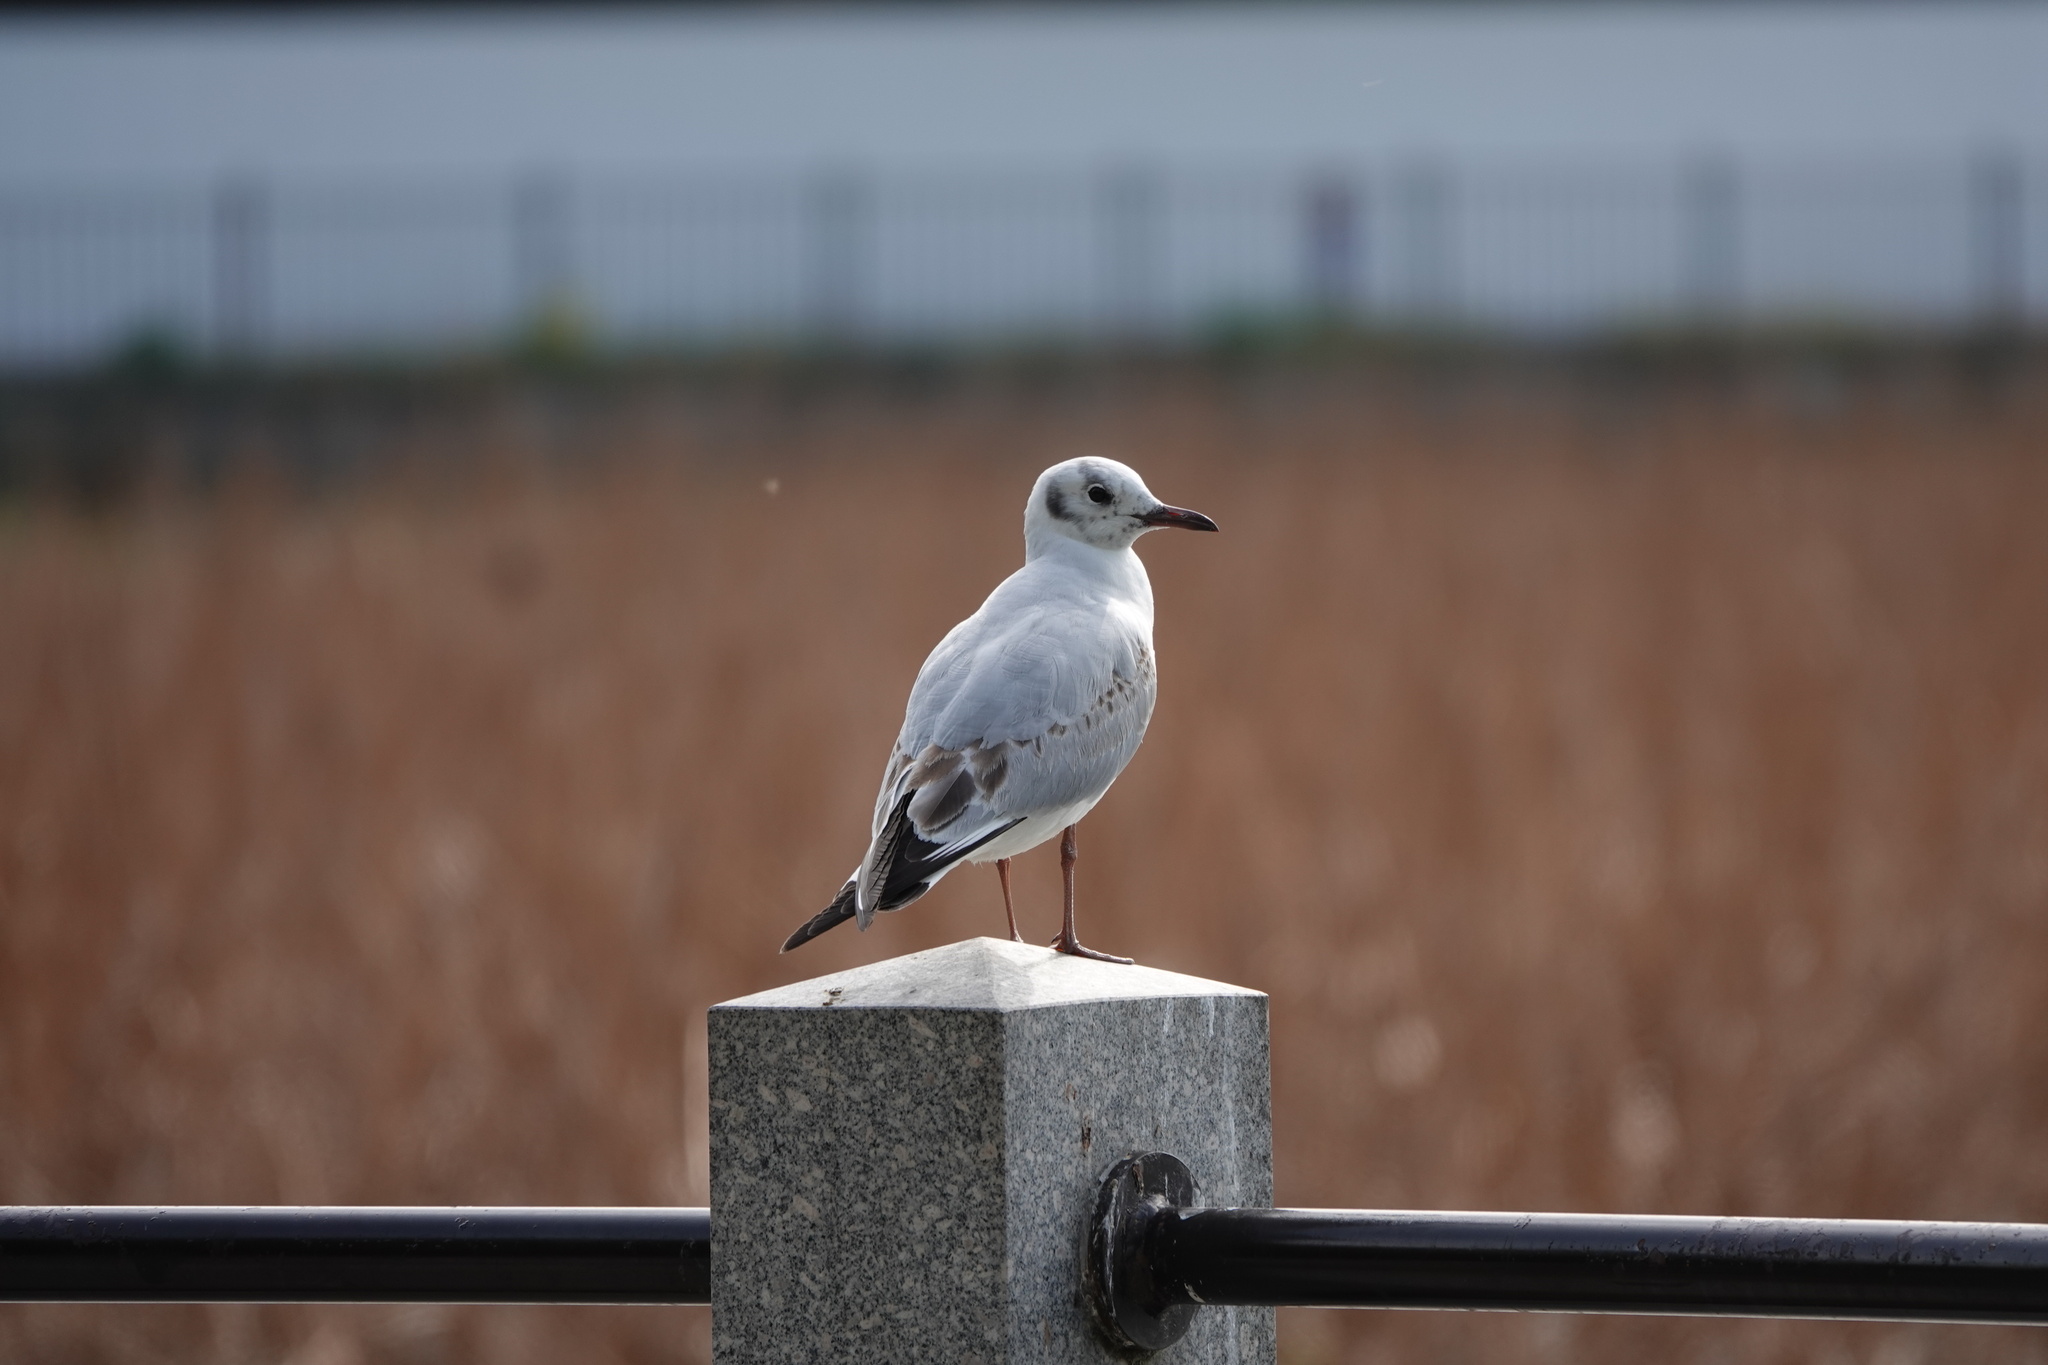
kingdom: Animalia
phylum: Chordata
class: Aves
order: Charadriiformes
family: Laridae
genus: Chroicocephalus
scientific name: Chroicocephalus ridibundus
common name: Black-headed gull
